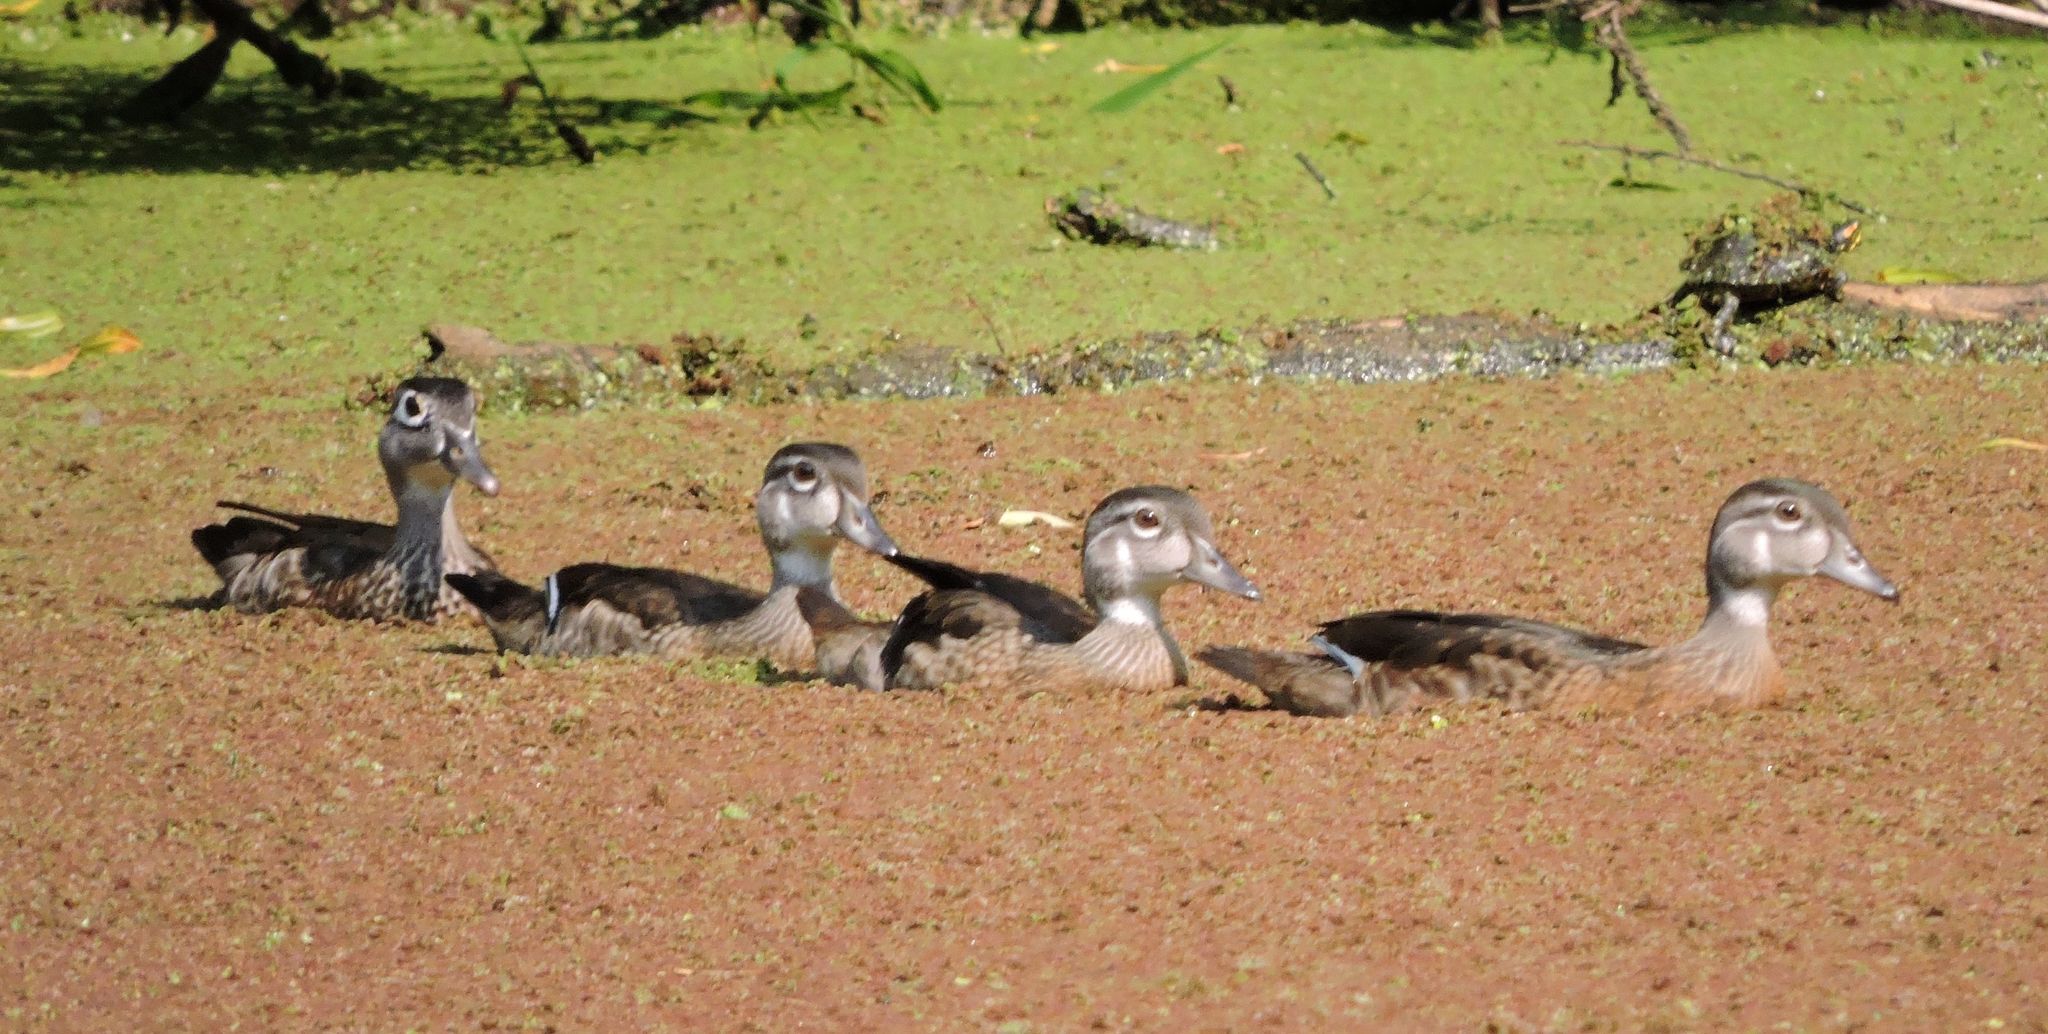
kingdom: Animalia
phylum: Chordata
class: Aves
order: Anseriformes
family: Anatidae
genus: Aix
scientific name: Aix sponsa
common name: Wood duck
